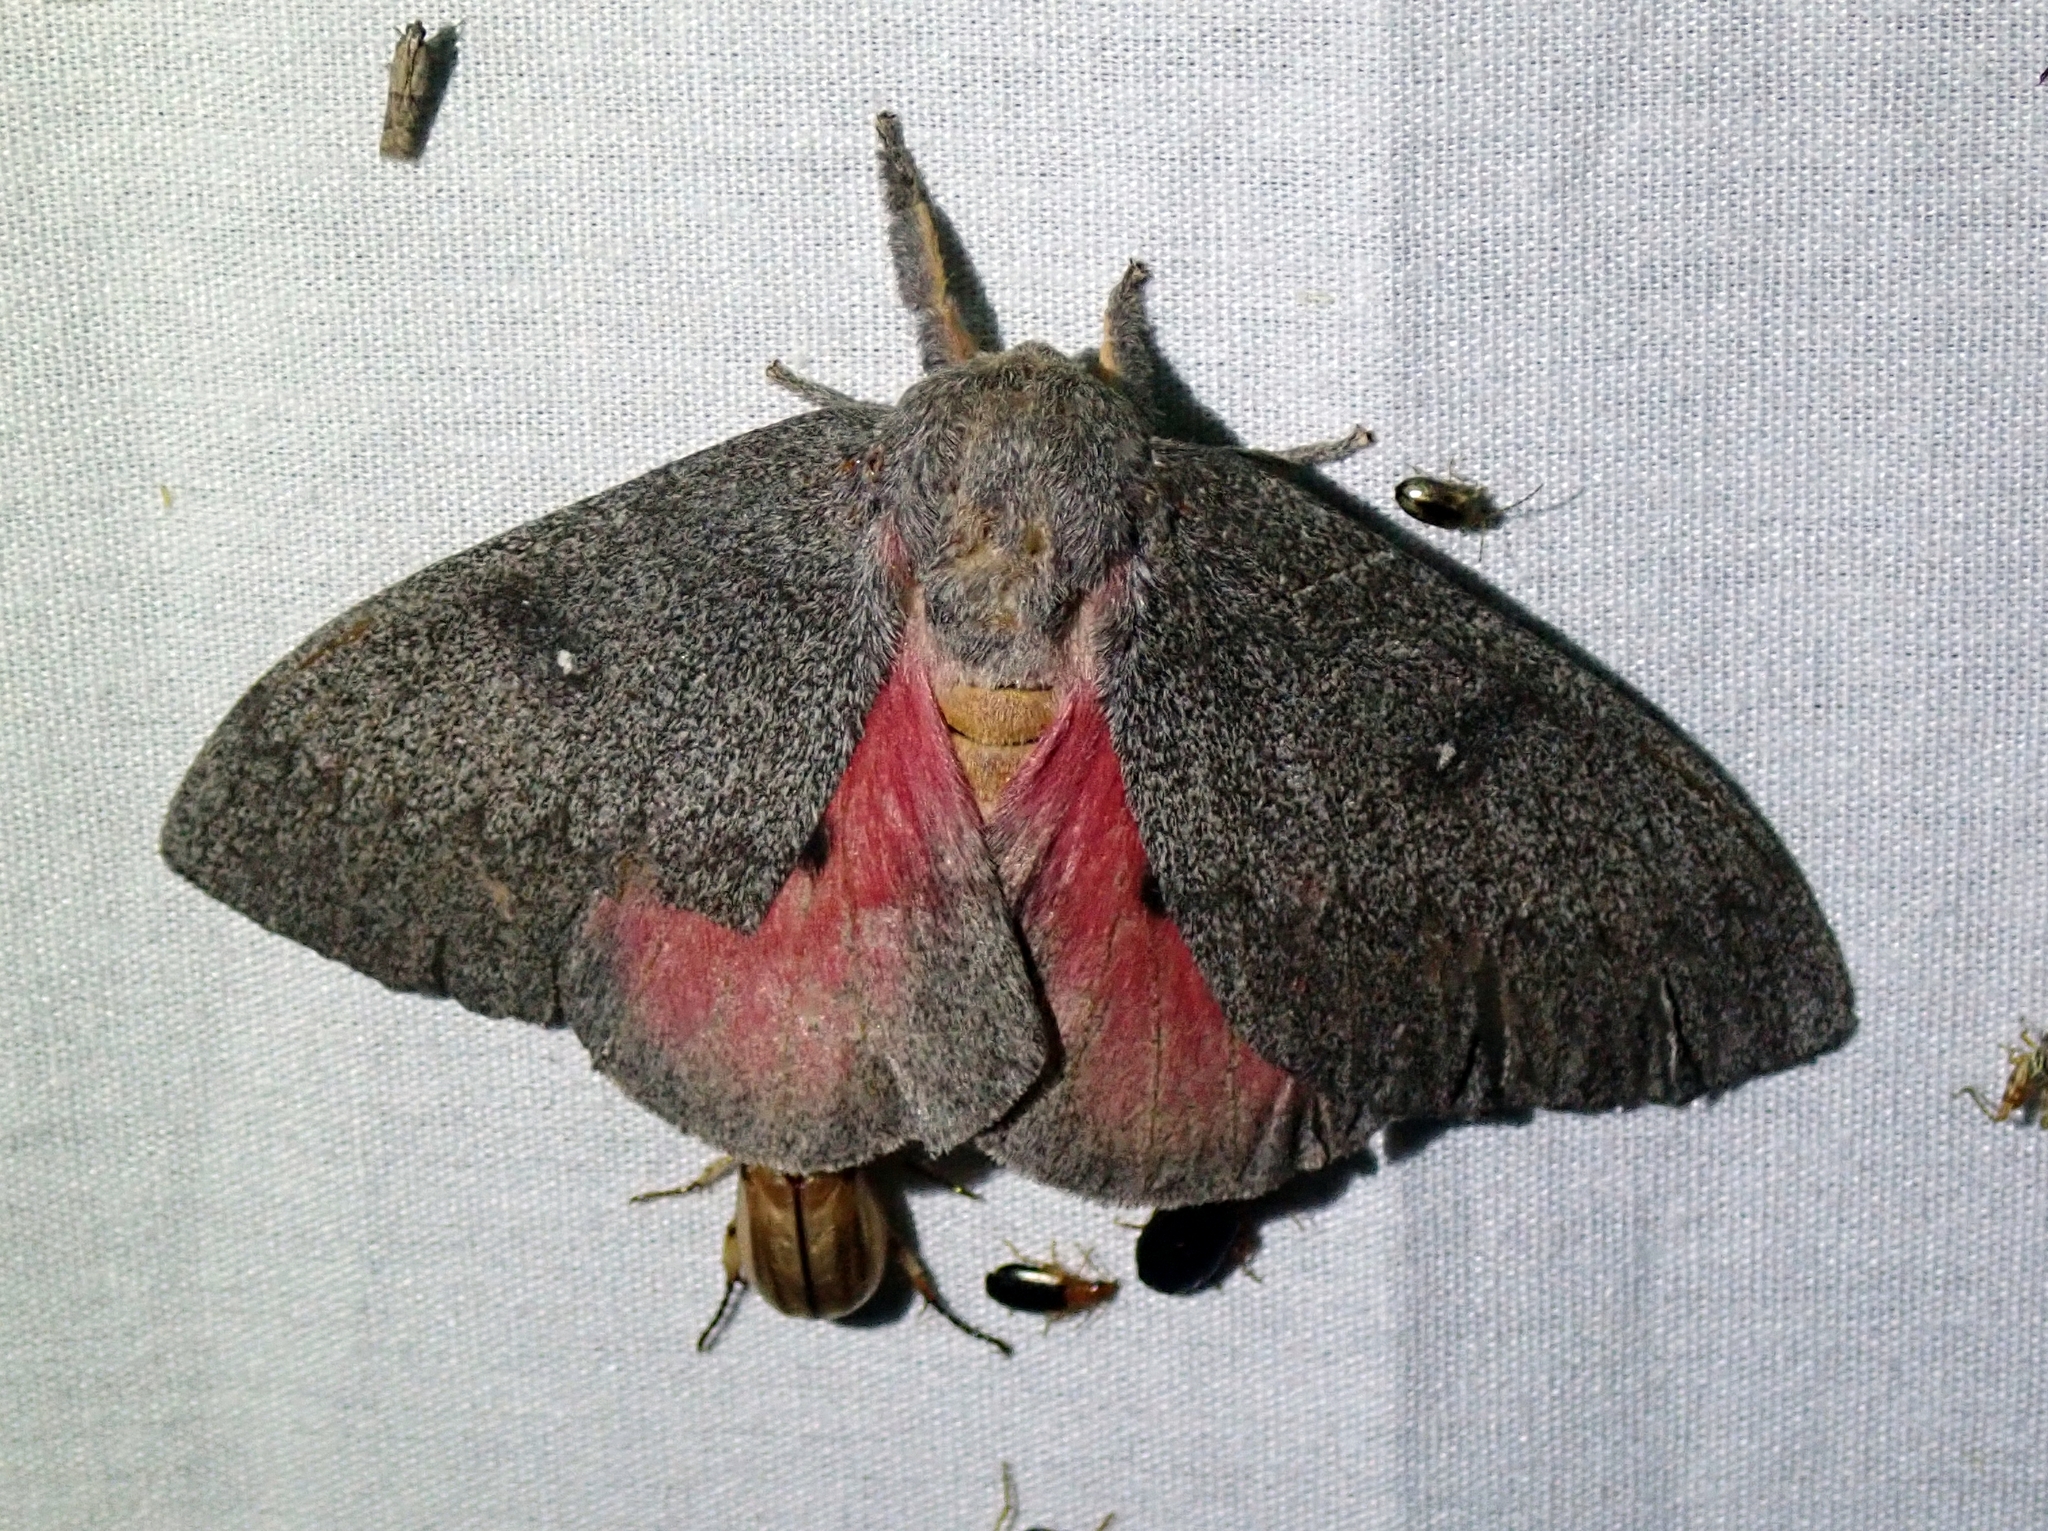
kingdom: Animalia
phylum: Arthropoda
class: Insecta
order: Lepidoptera
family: Saturniidae
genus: Syssphinx
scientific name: Syssphinx hubbardi
